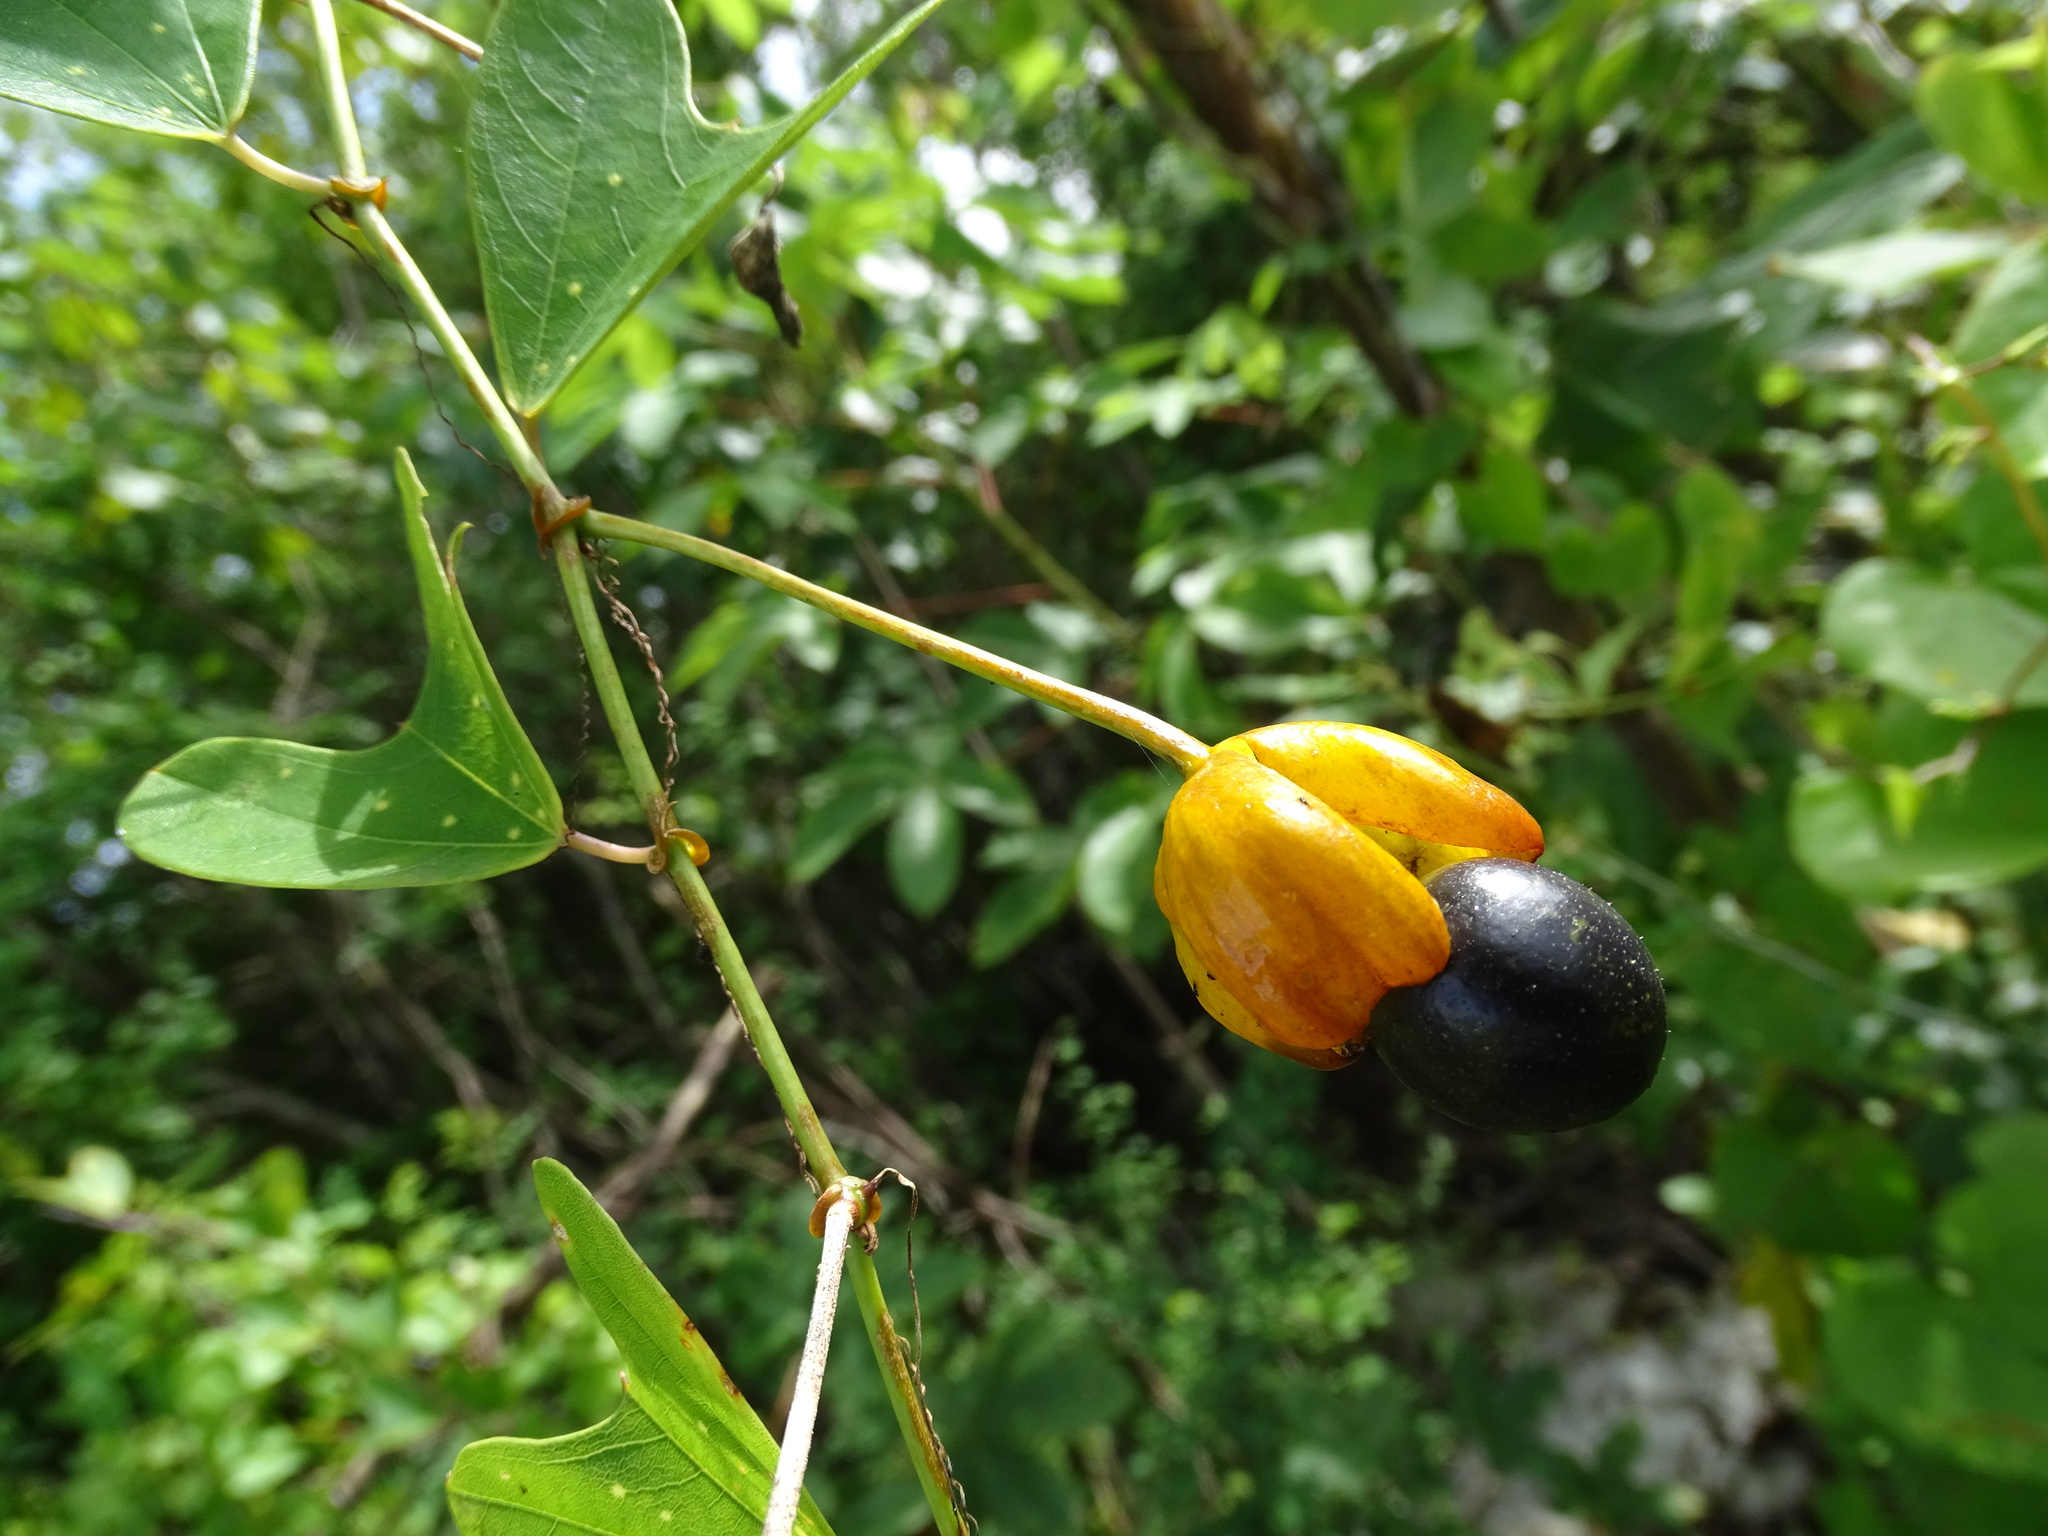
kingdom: Plantae
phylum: Tracheophyta
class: Magnoliopsida
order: Malpighiales
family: Passifloraceae
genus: Passiflora
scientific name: Passiflora bicornis
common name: Wingleaf passionflower
